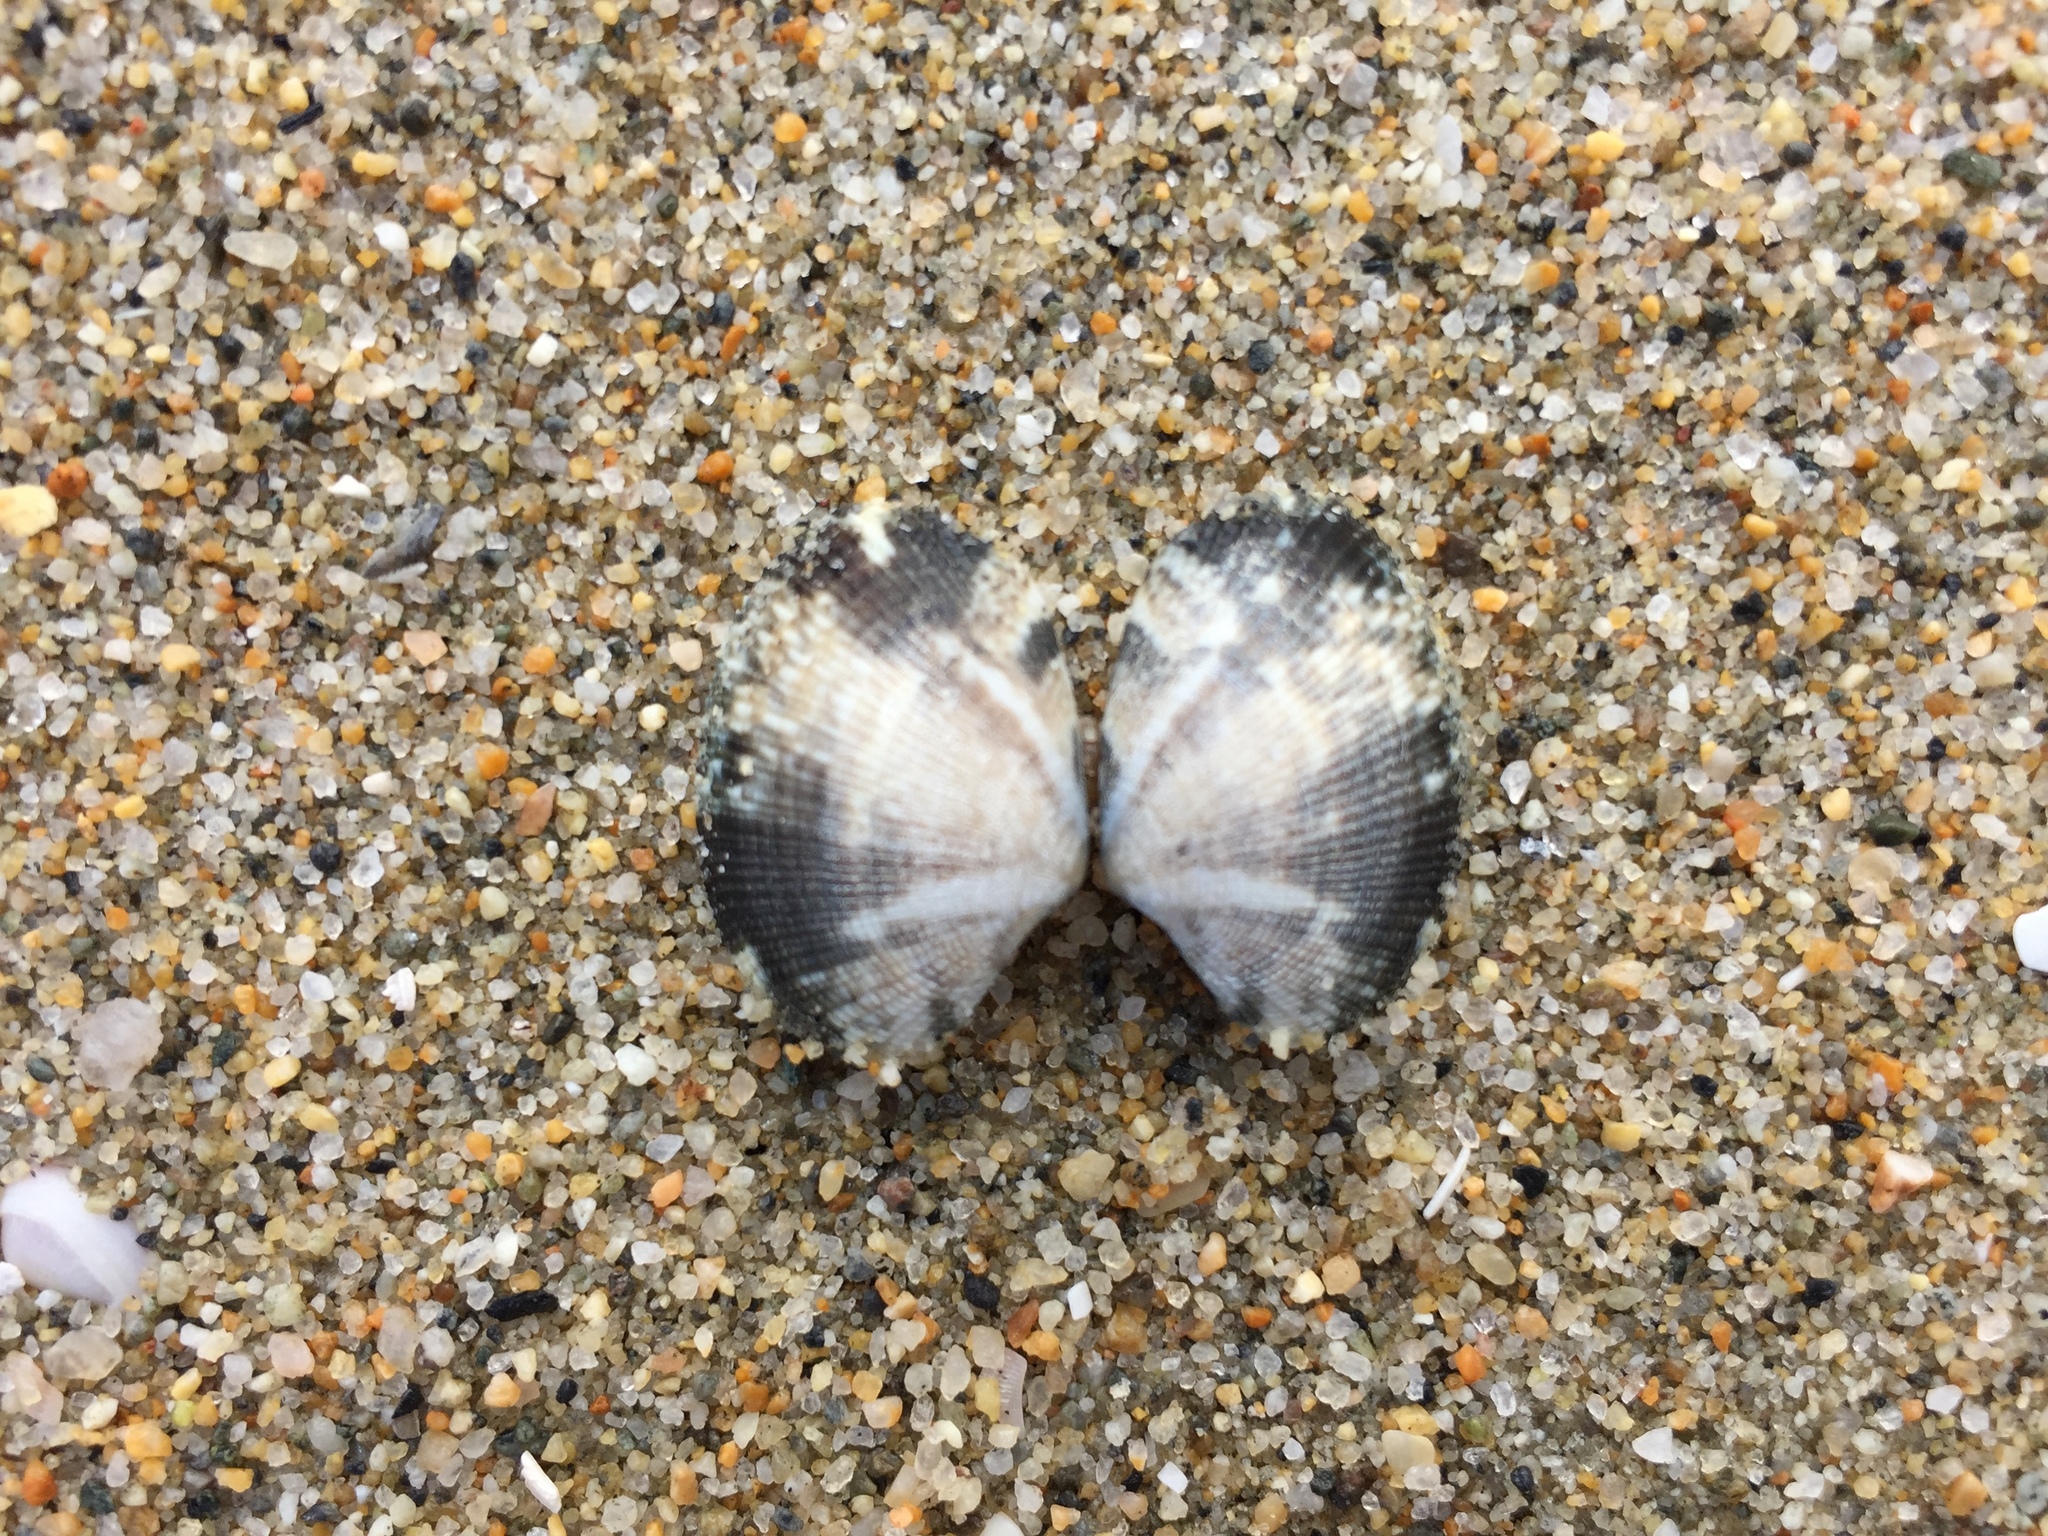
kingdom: Animalia
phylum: Mollusca
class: Bivalvia
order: Venerida
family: Veneridae
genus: Ruditapes
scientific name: Ruditapes philippinarum
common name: Manila clam
